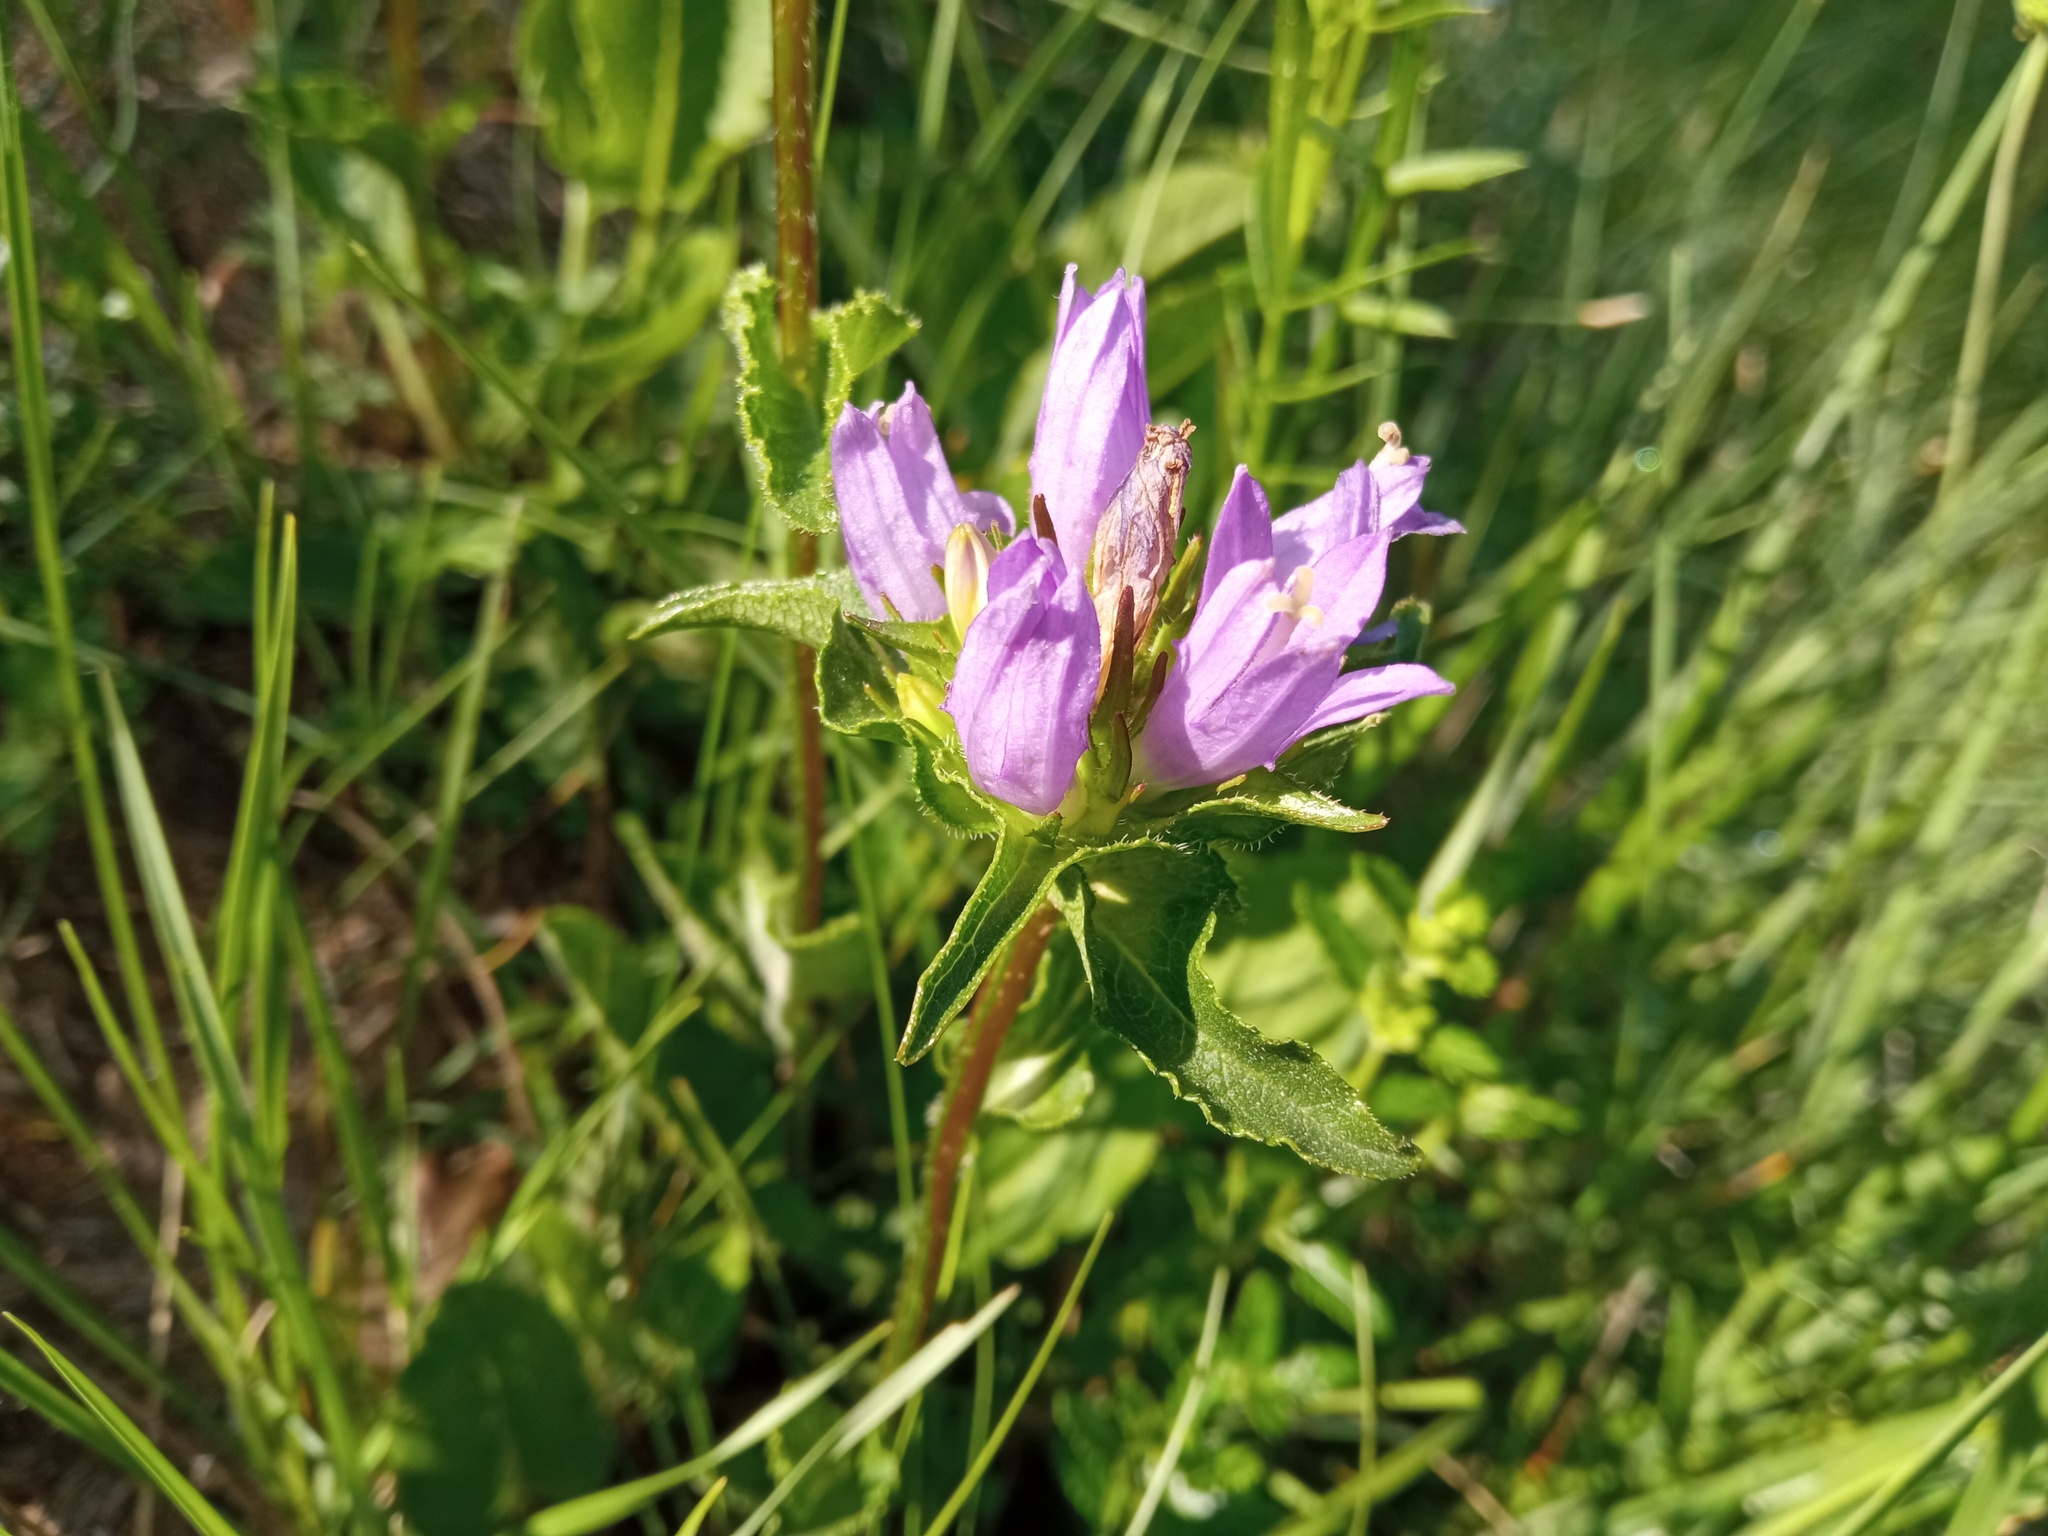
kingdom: Plantae
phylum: Tracheophyta
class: Magnoliopsida
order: Asterales
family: Campanulaceae
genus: Campanula
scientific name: Campanula glomerata
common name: Clustered bellflower
